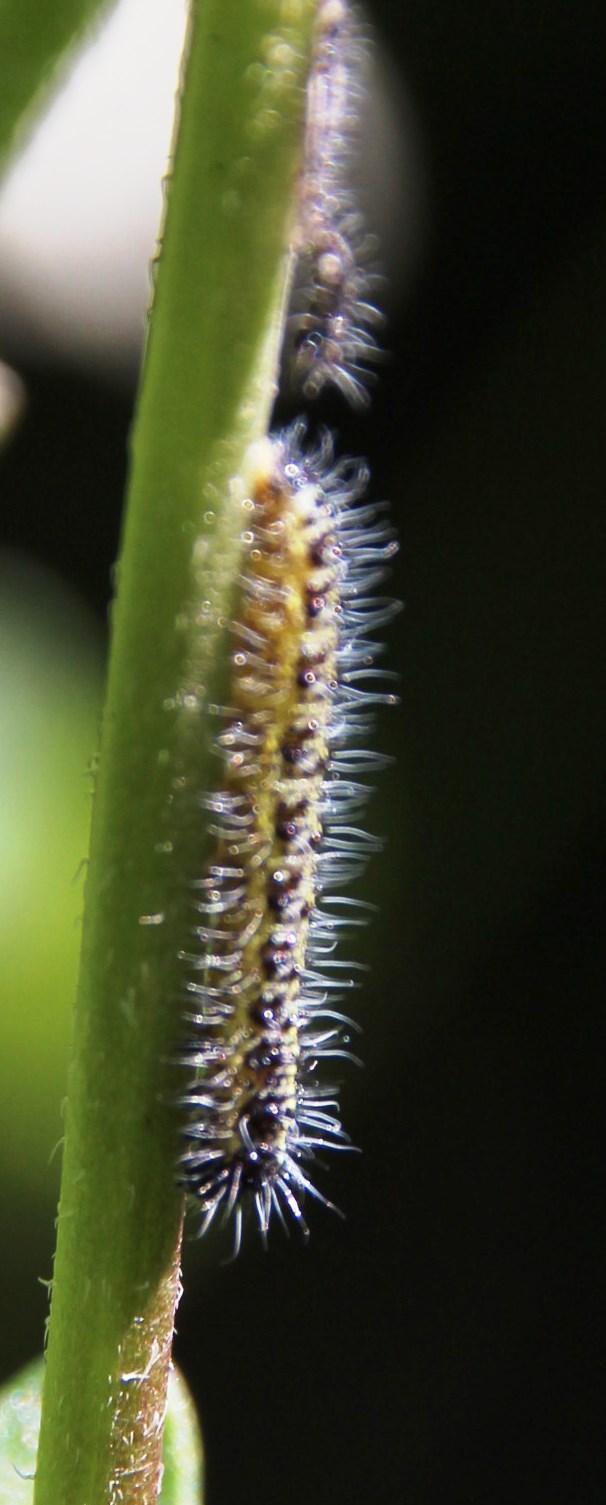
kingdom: Animalia
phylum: Arthropoda
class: Insecta
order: Lepidoptera
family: Pieridae
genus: Pieris
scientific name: Pieris brassicae
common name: Large white
